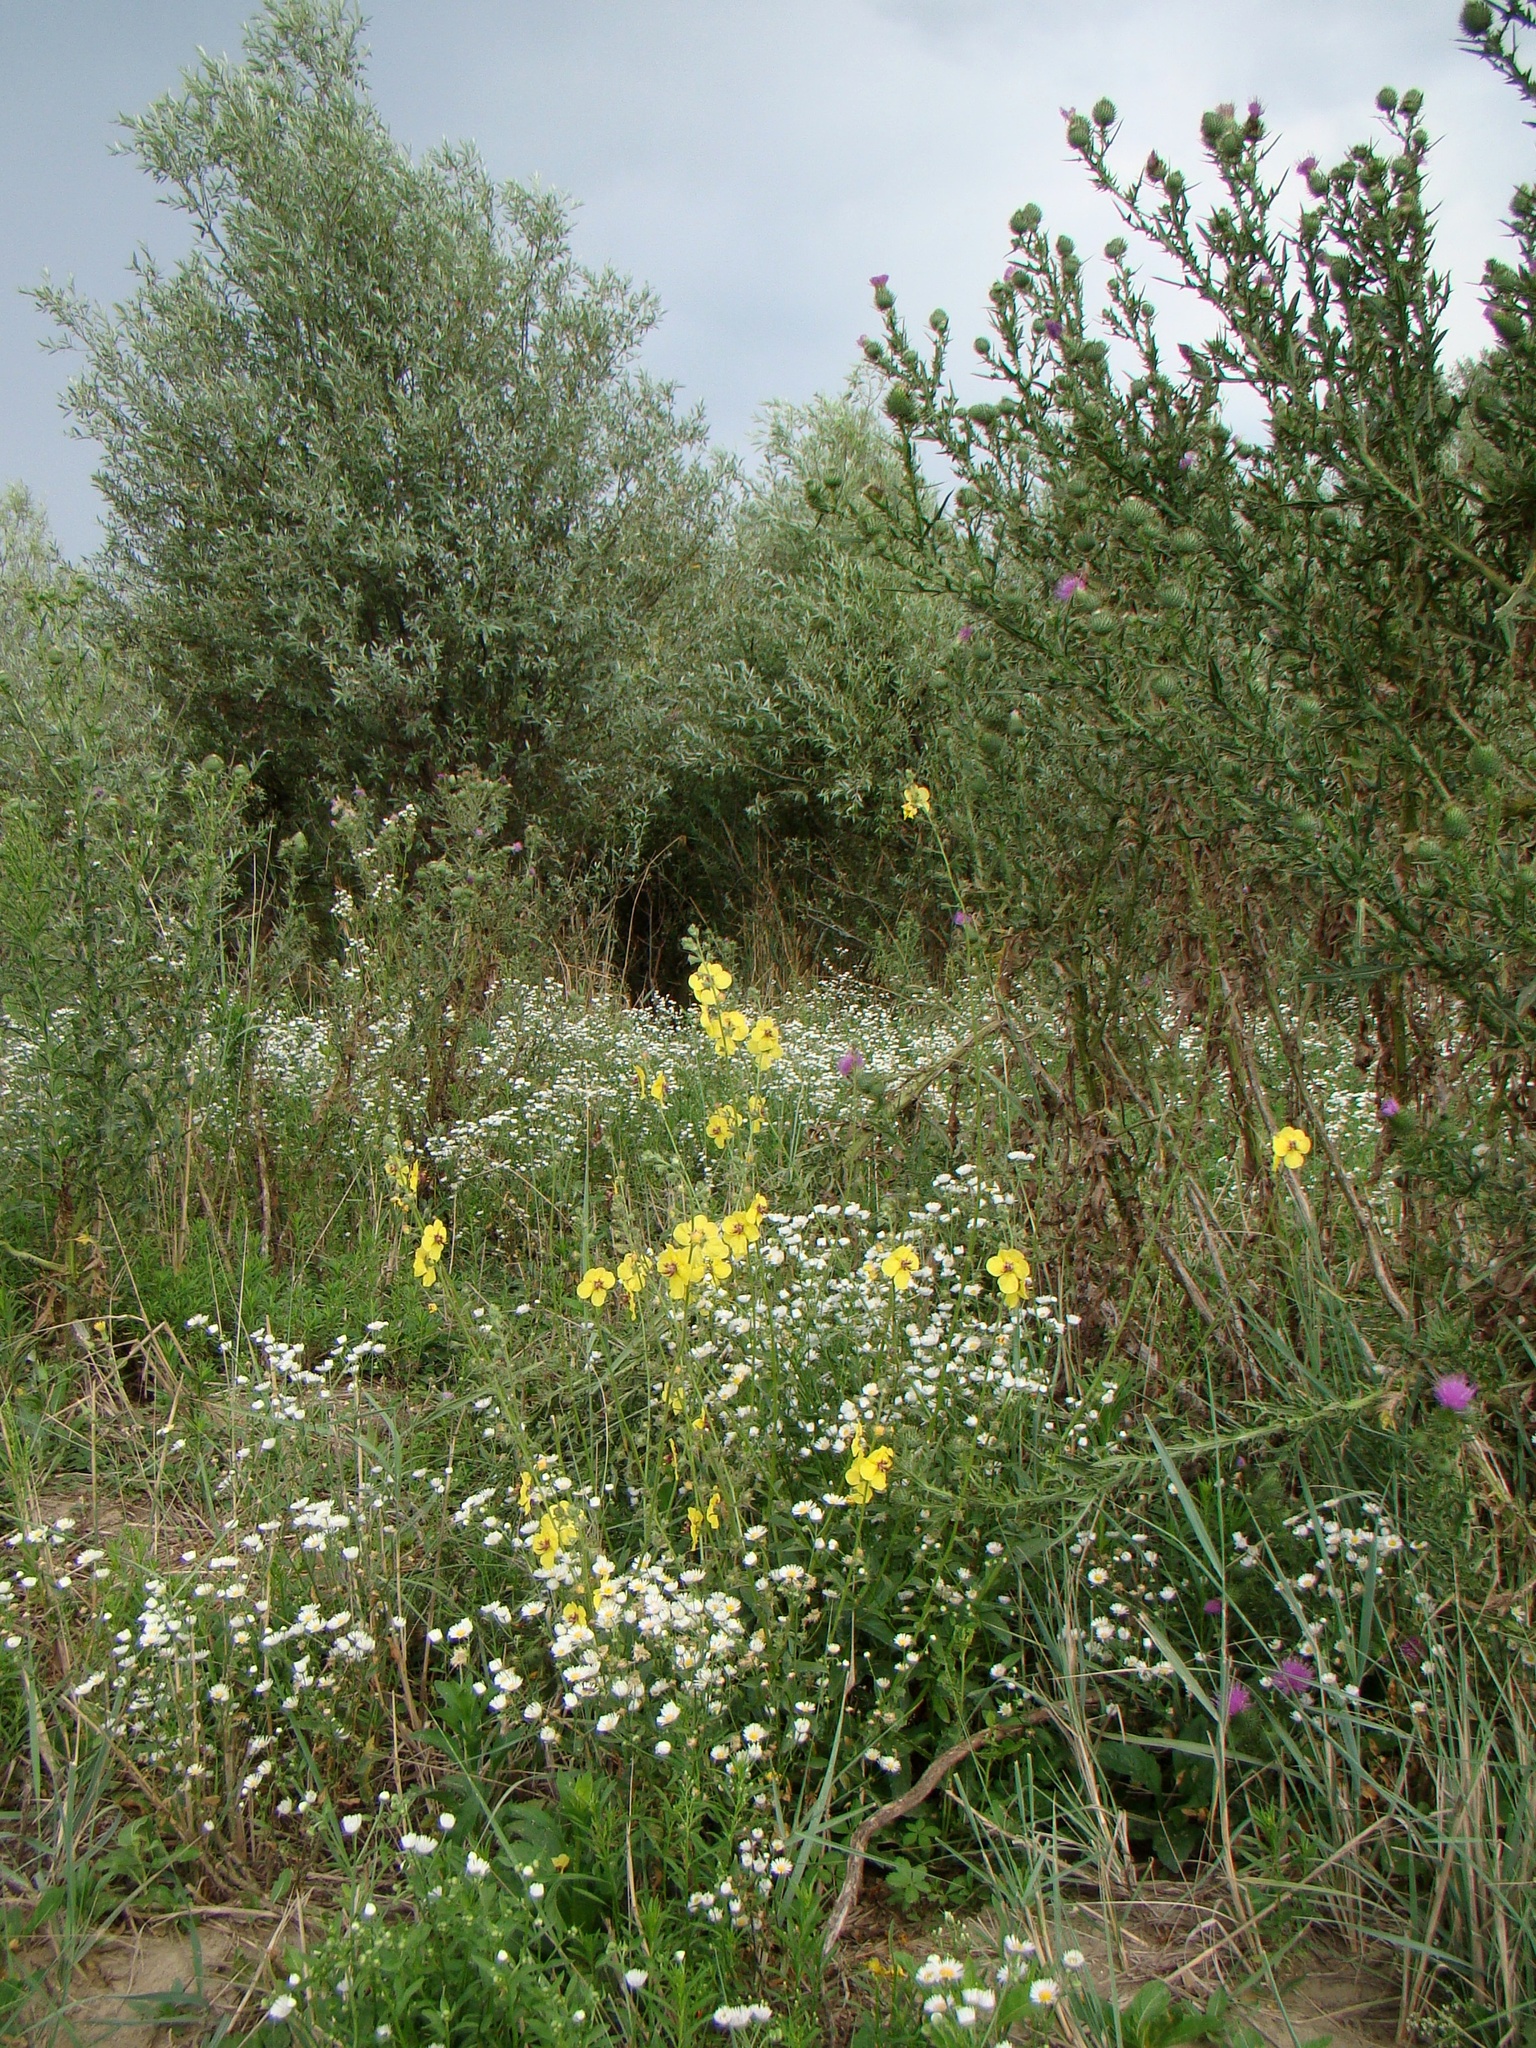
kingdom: Plantae
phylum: Tracheophyta
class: Magnoliopsida
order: Lamiales
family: Scrophulariaceae
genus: Verbascum
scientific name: Verbascum blattaria
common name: Moth mullein
